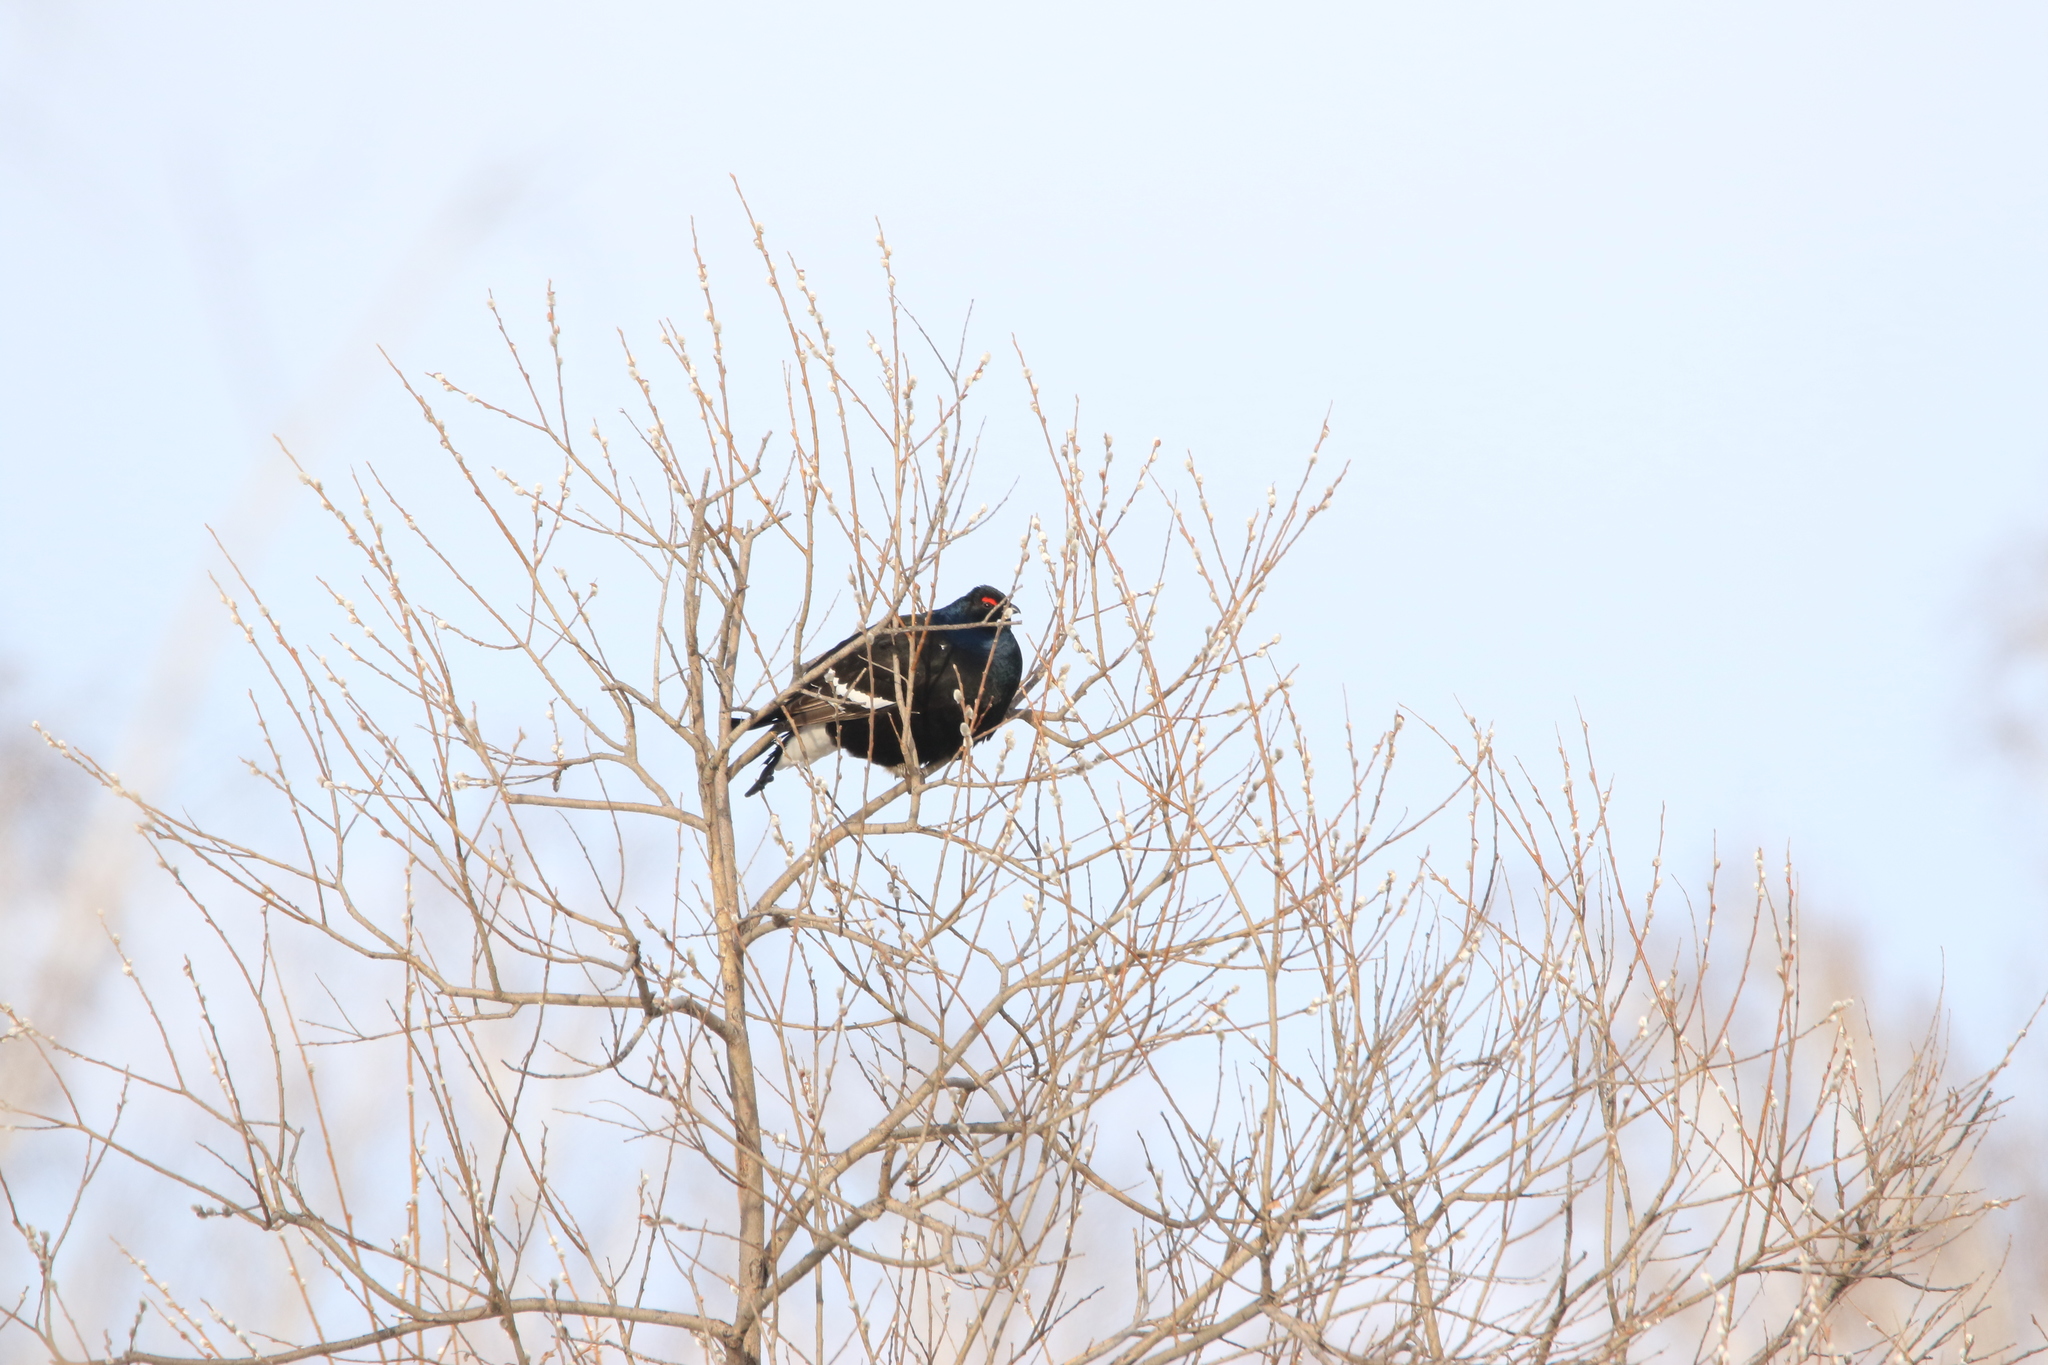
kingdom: Animalia
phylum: Chordata
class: Aves
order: Galliformes
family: Phasianidae
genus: Lyrurus
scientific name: Lyrurus tetrix
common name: Black grouse
